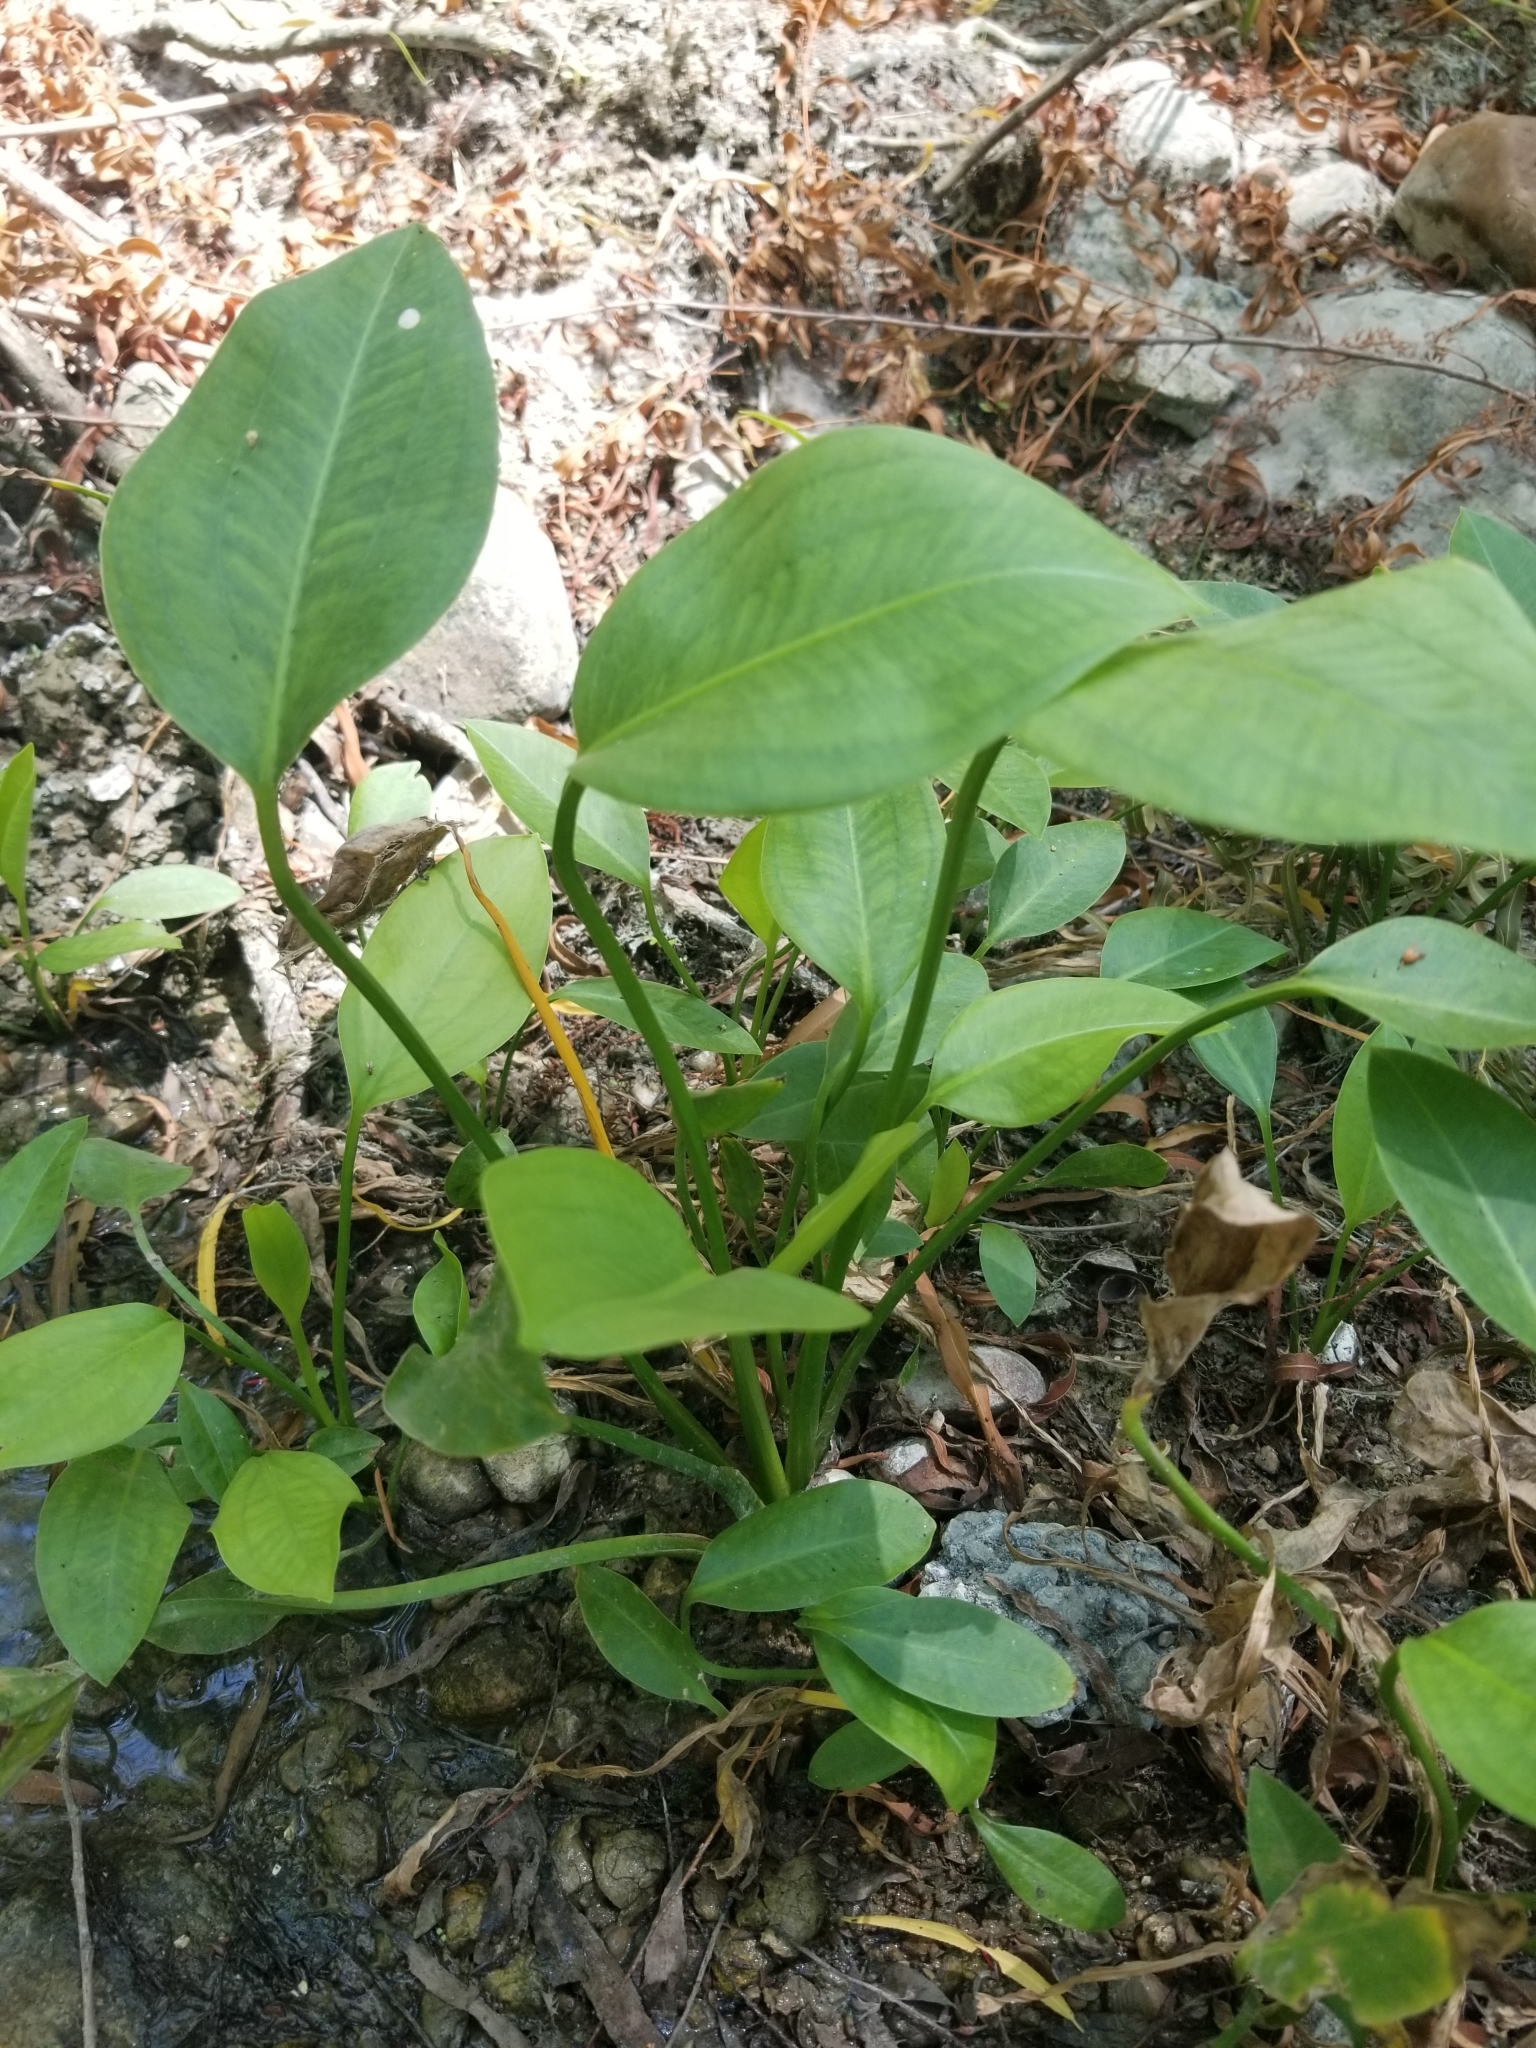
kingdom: Plantae
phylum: Tracheophyta
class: Liliopsida
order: Alismatales
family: Alismataceae
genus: Sagittaria
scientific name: Sagittaria platyphylla
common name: Broad-leaf arrowhead
